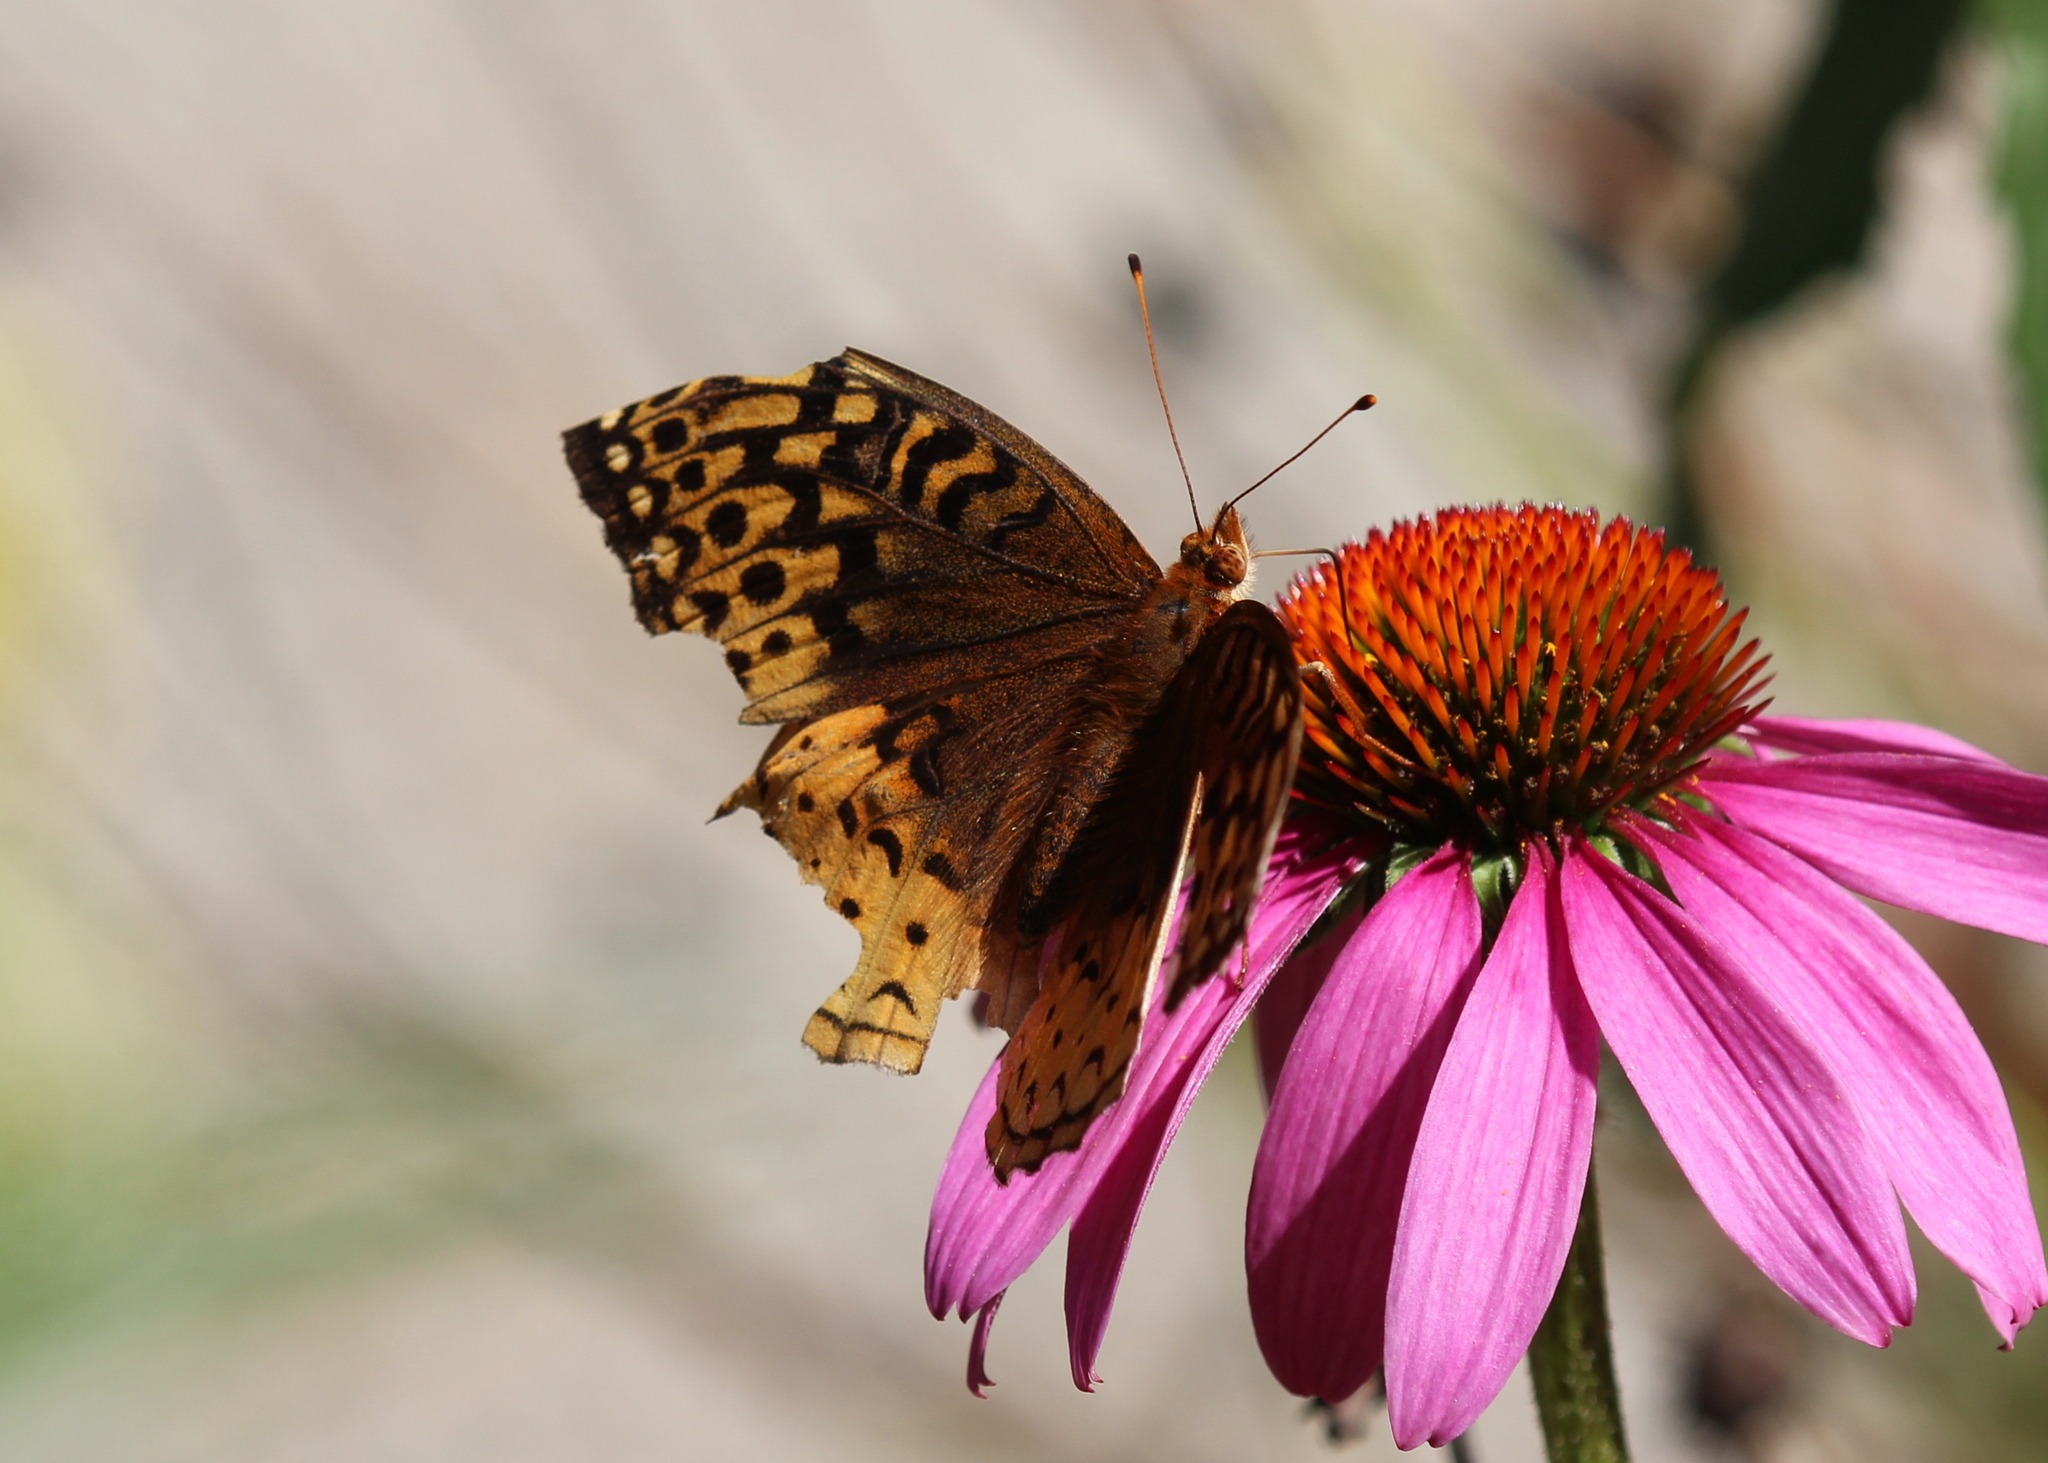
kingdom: Animalia
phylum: Arthropoda
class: Insecta
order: Lepidoptera
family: Nymphalidae
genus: Speyeria
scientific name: Speyeria cybele
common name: Great spangled fritillary
